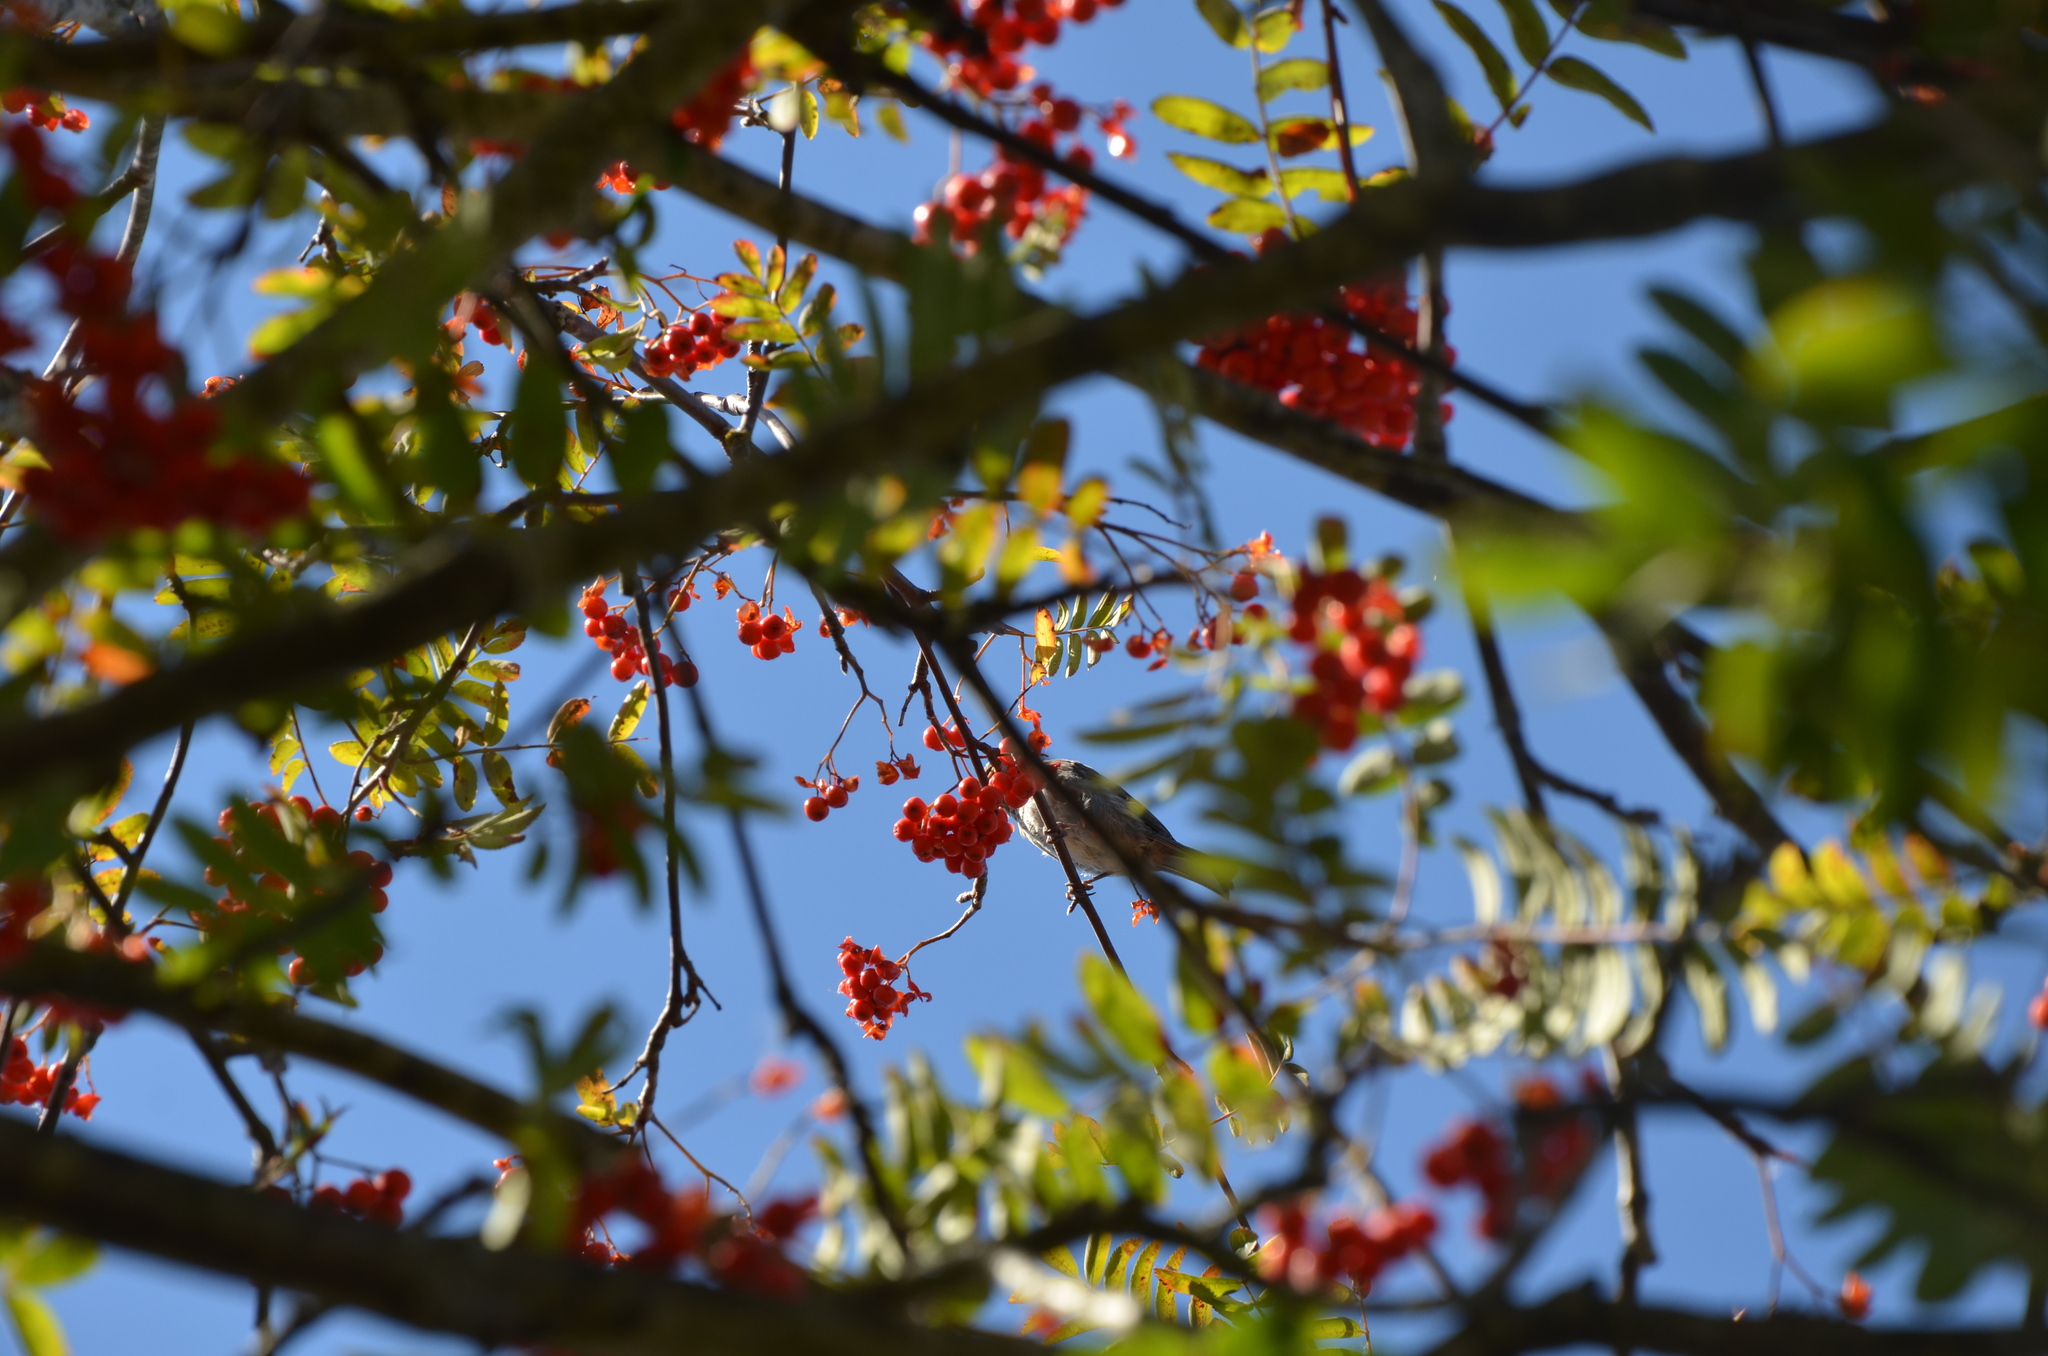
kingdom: Animalia
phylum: Chordata
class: Aves
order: Passeriformes
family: Fringillidae
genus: Haemorhous
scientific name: Haemorhous purpureus
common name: Purple finch
